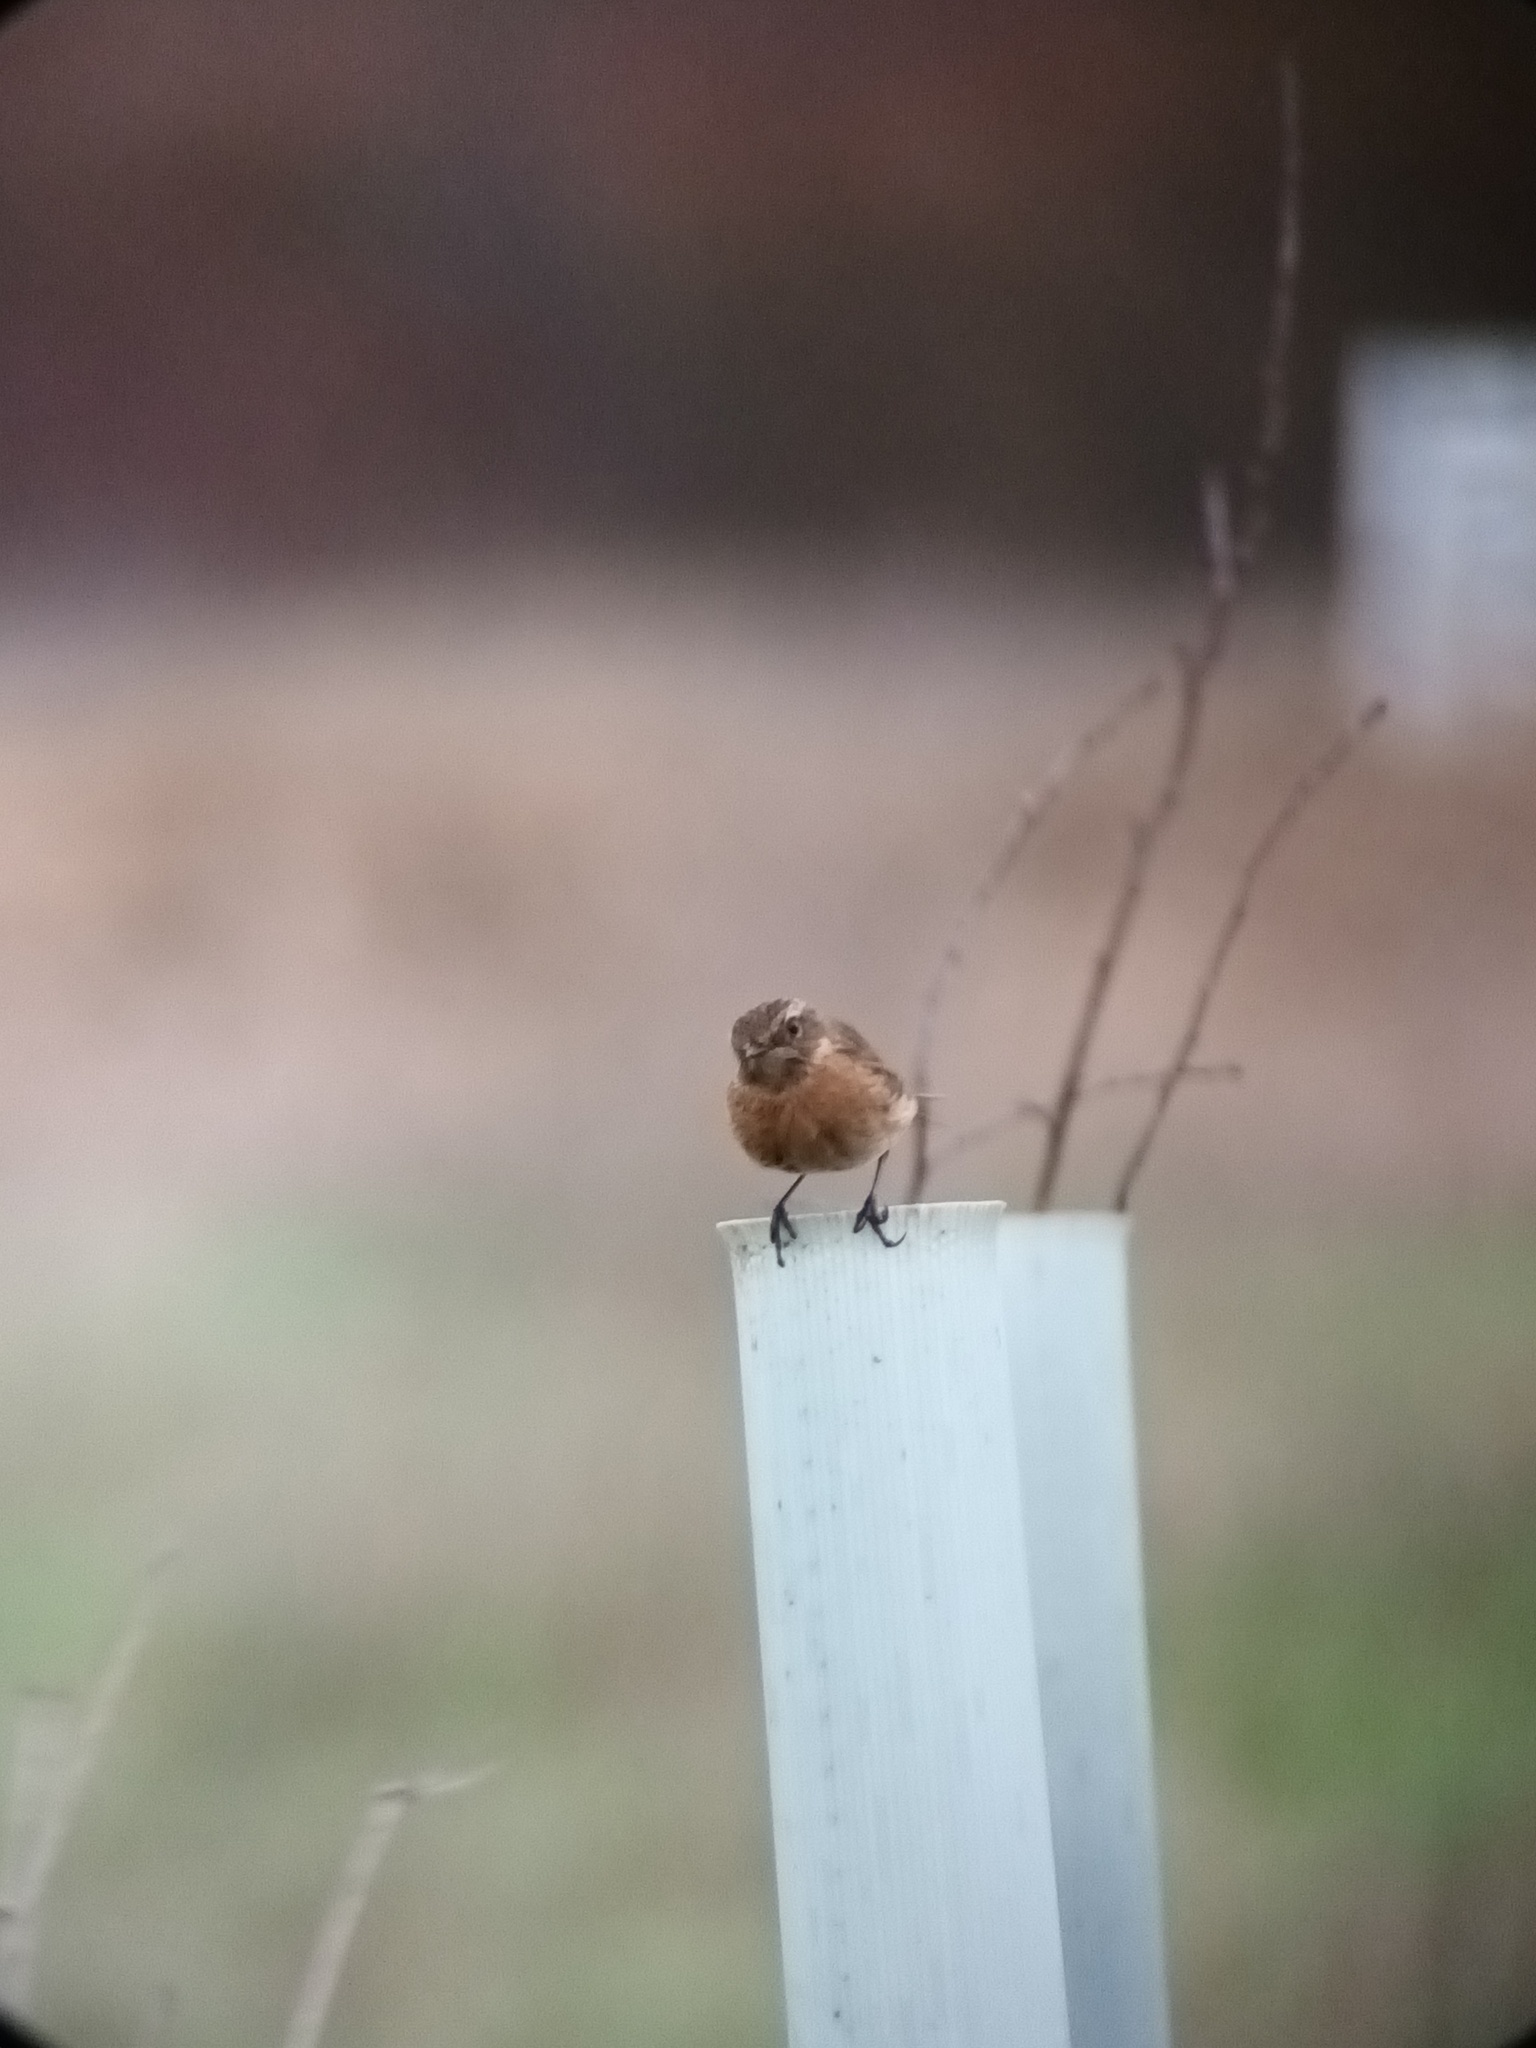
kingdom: Animalia
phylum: Chordata
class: Aves
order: Passeriformes
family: Muscicapidae
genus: Saxicola
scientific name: Saxicola rubicola
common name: European stonechat
